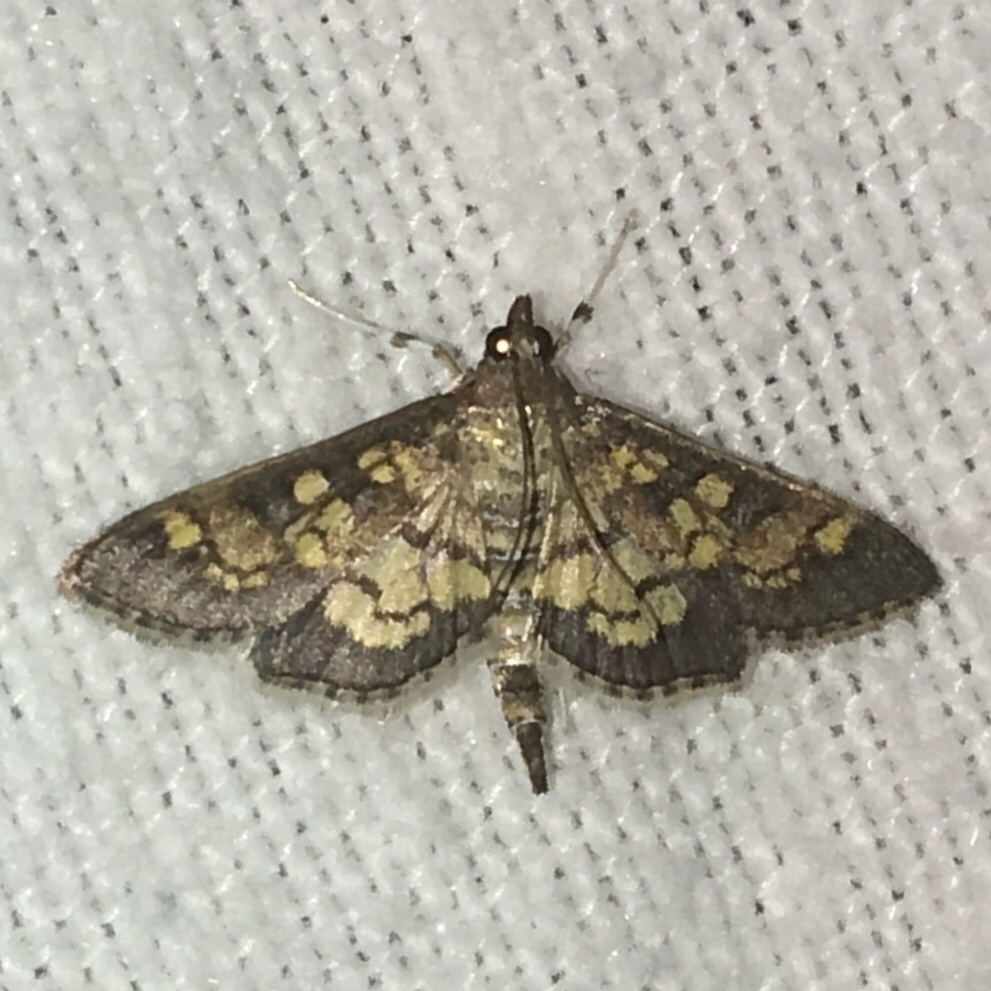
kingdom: Animalia
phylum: Arthropoda
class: Insecta
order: Lepidoptera
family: Crambidae
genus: Epipagis
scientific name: Epipagis adipaloides
